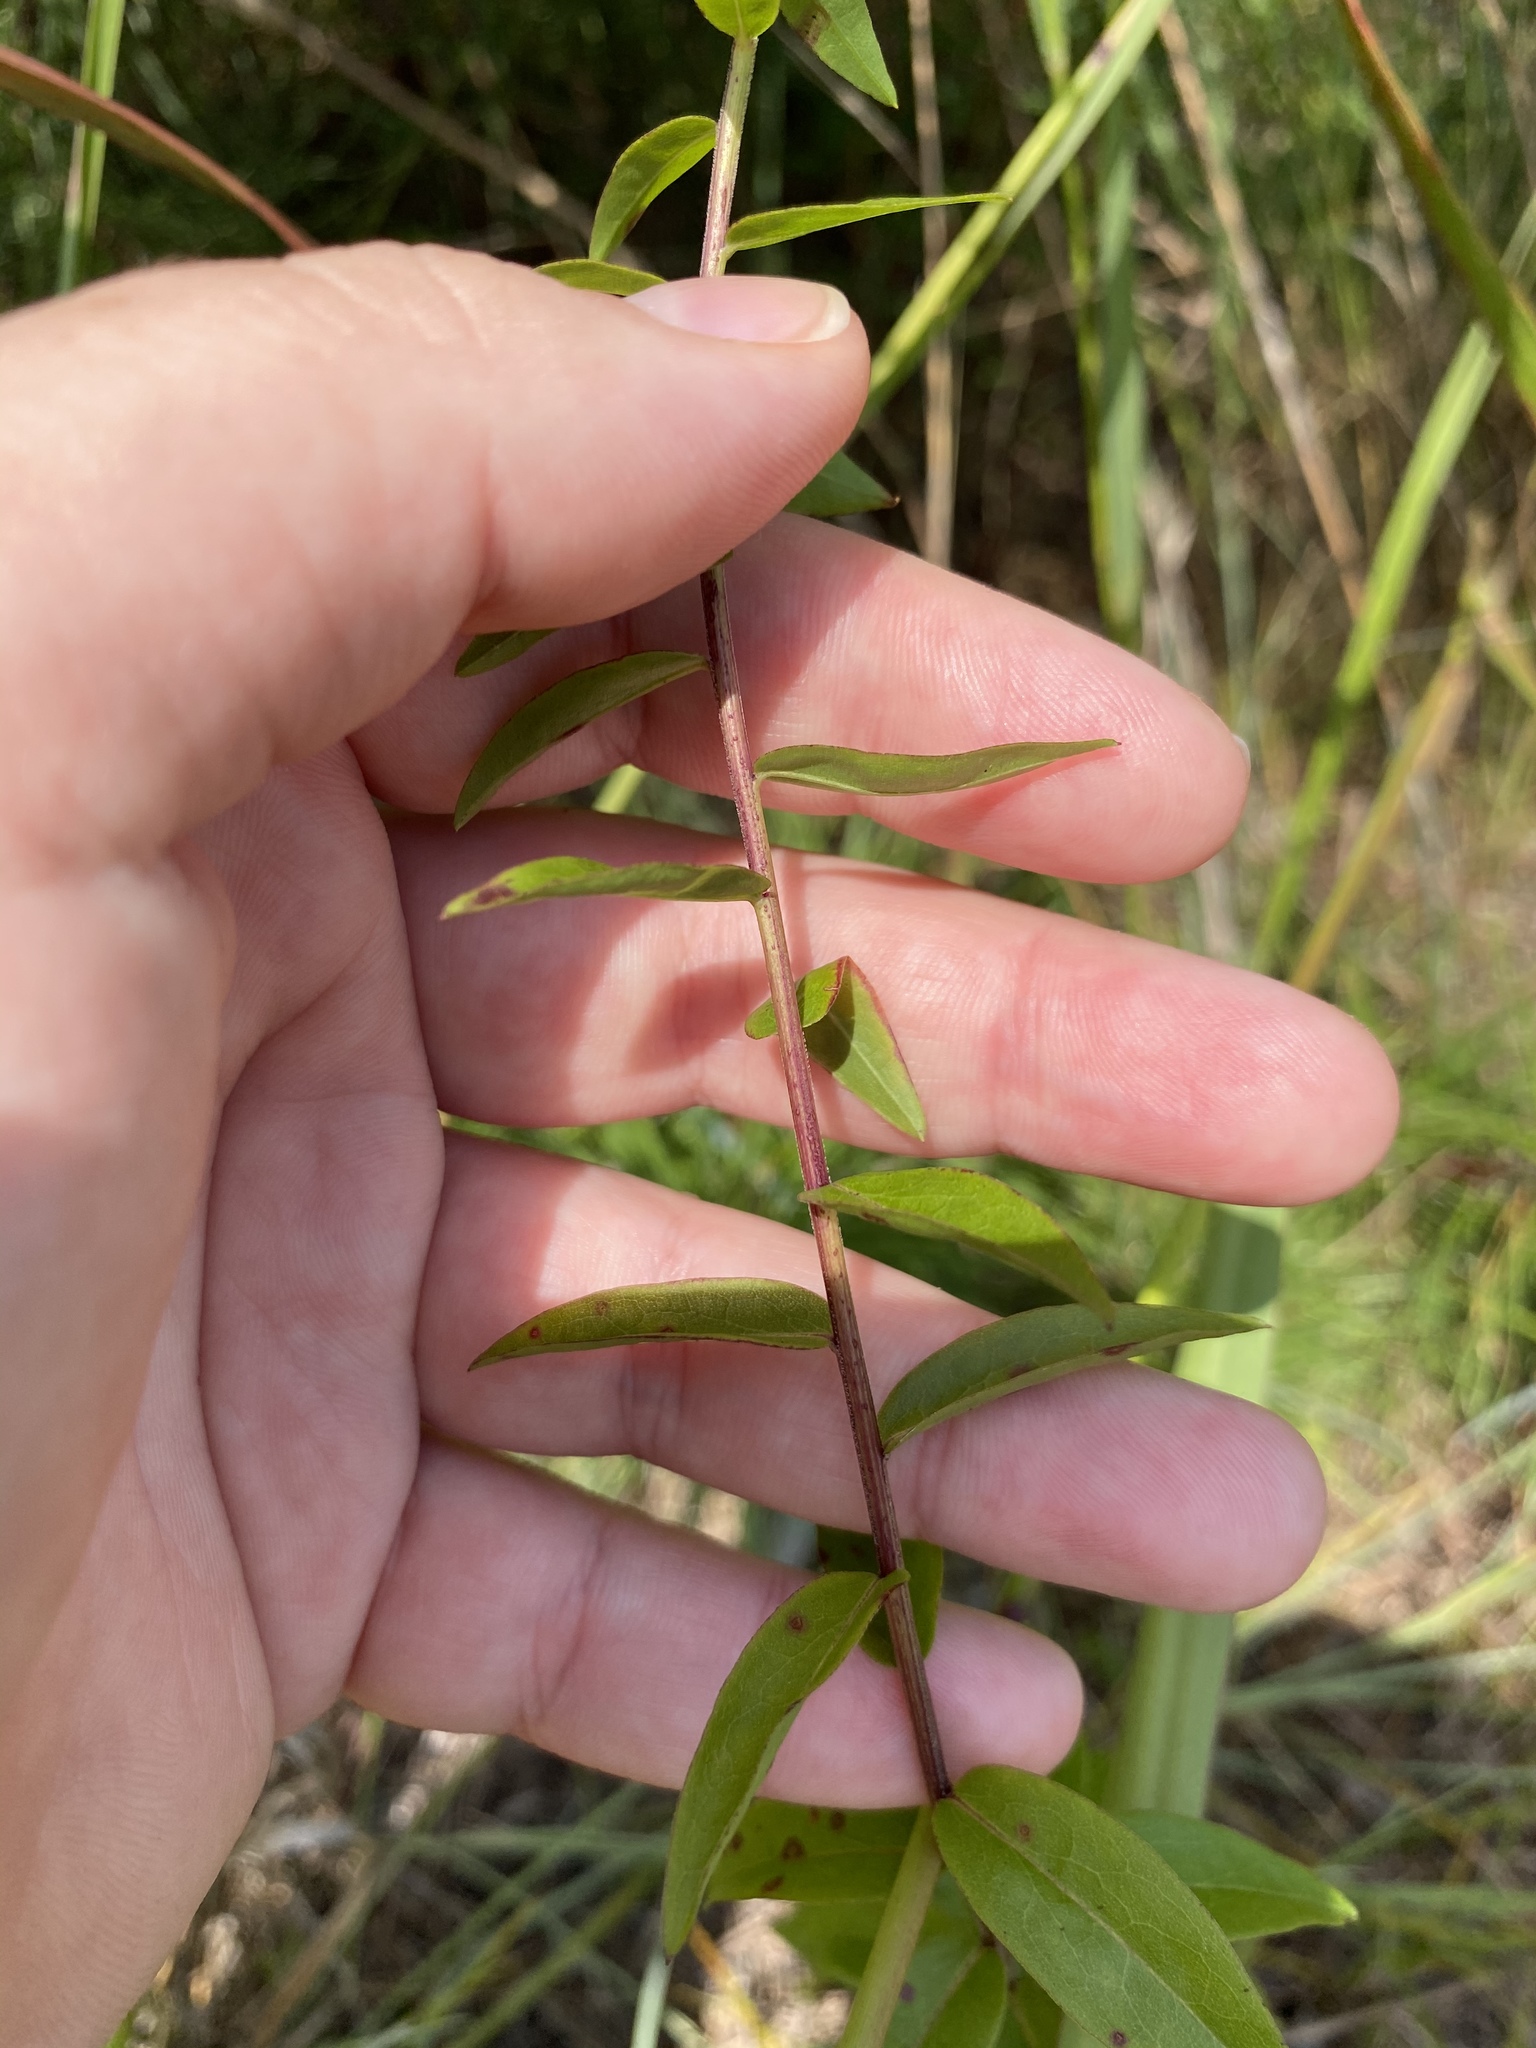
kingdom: Plantae
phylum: Tracheophyta
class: Magnoliopsida
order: Asterales
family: Asteraceae
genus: Solidago
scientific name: Solidago juncea
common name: Early goldenrod
